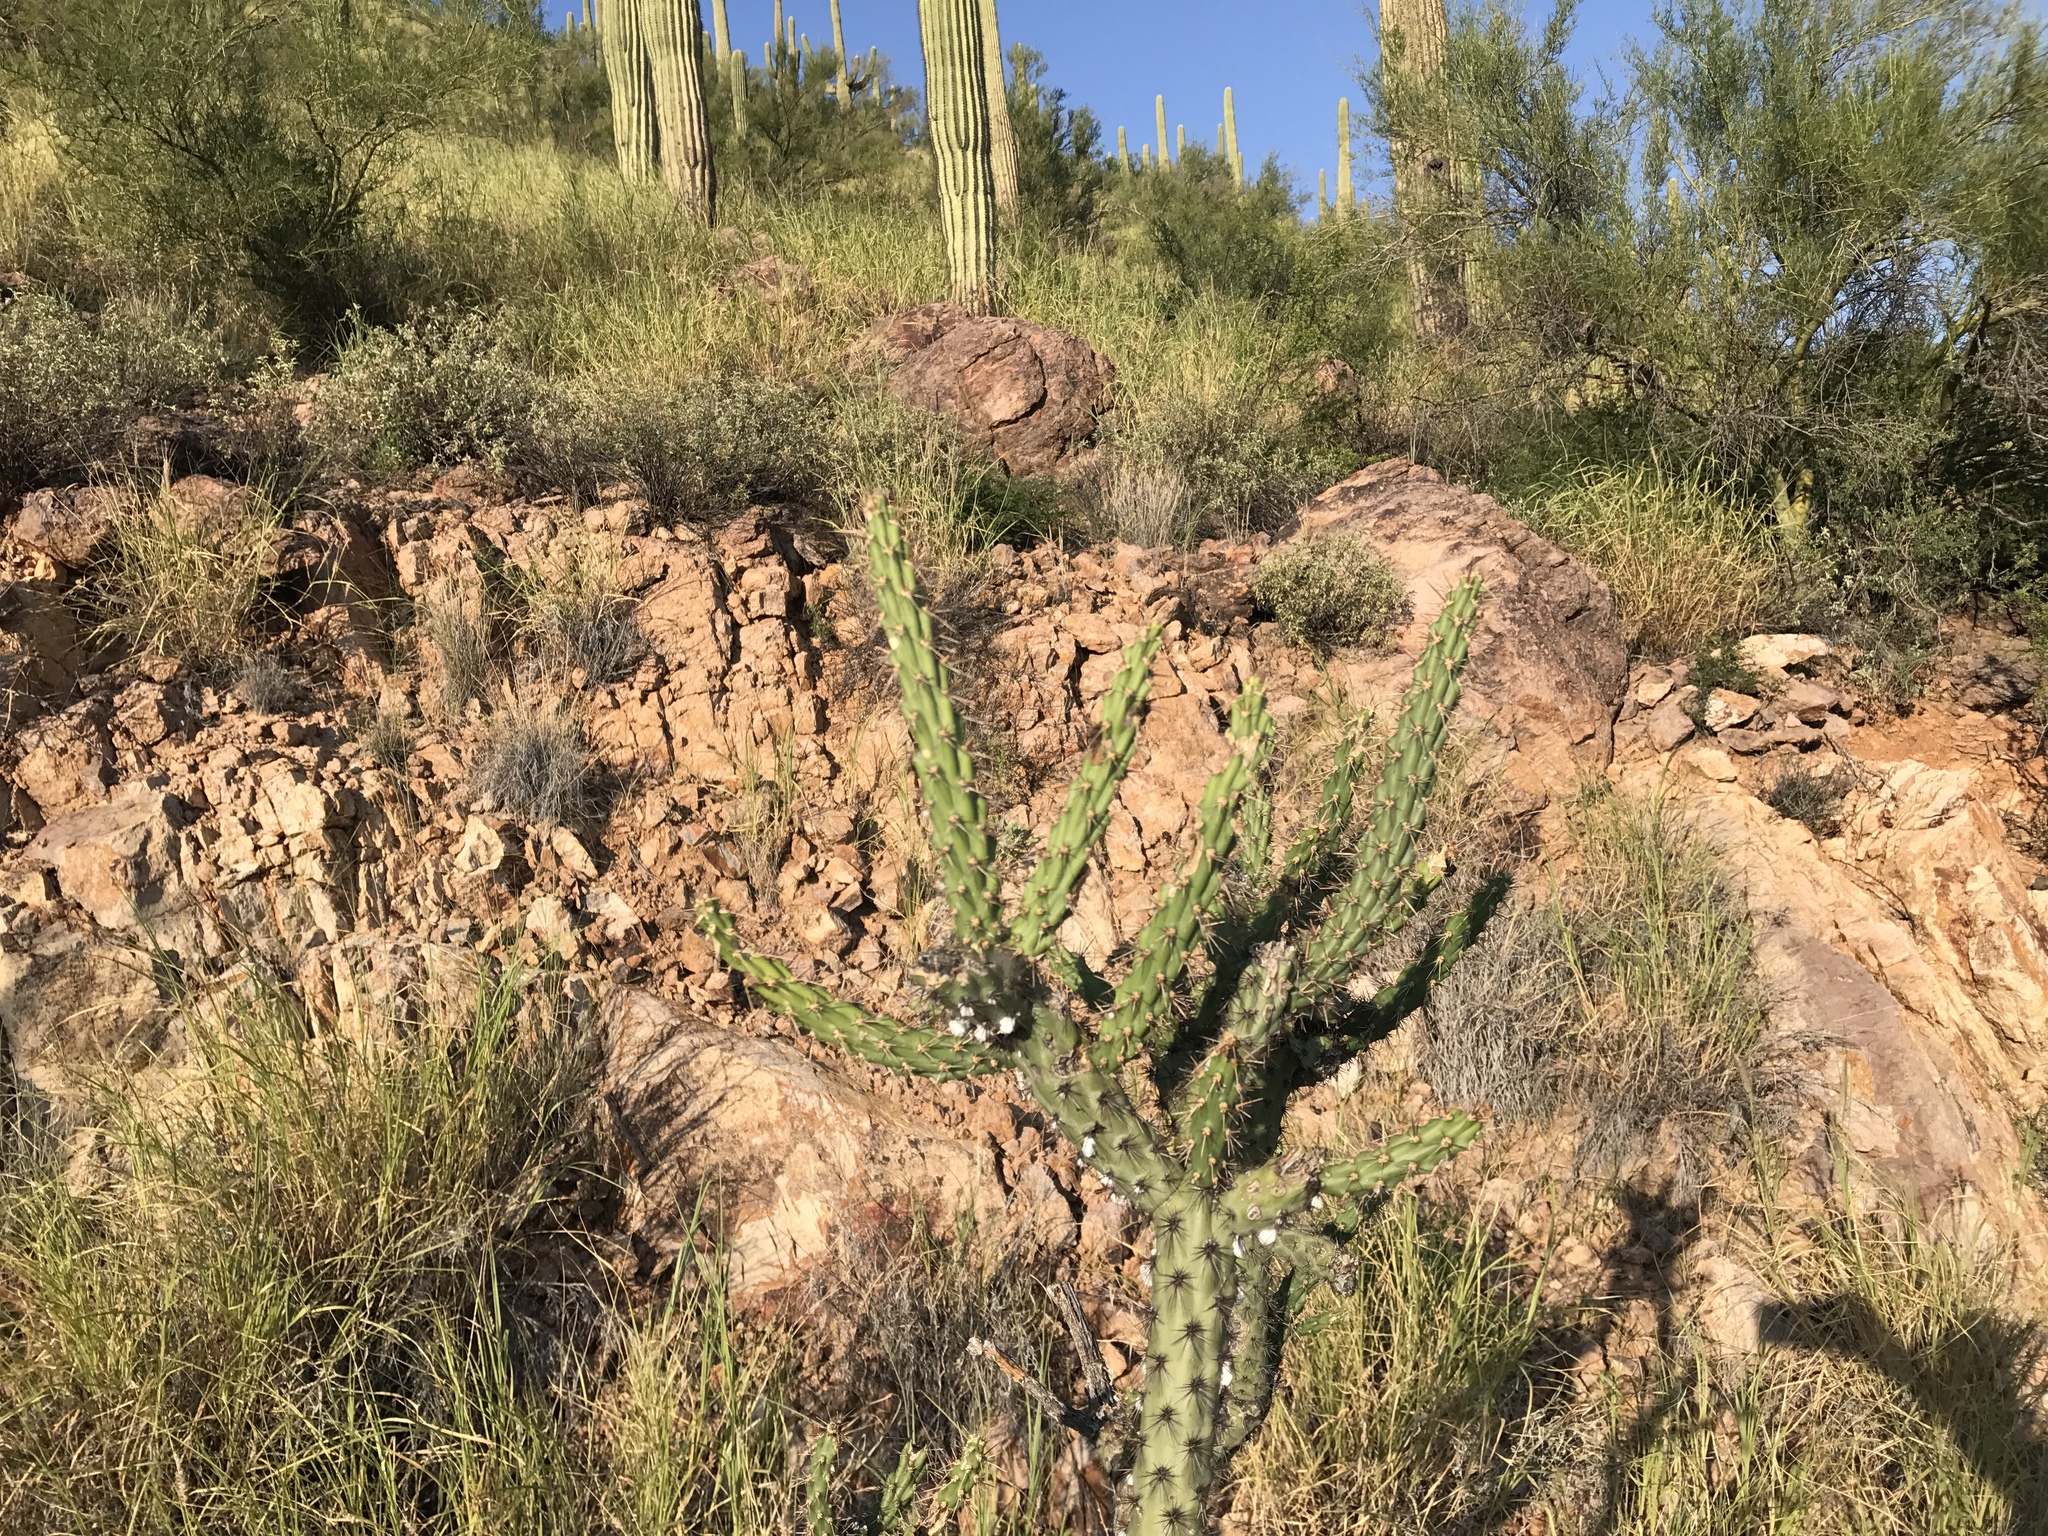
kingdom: Plantae
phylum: Tracheophyta
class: Magnoliopsida
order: Caryophyllales
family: Cactaceae
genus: Cylindropuntia
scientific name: Cylindropuntia acanthocarpa
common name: Buckhorn cholla
